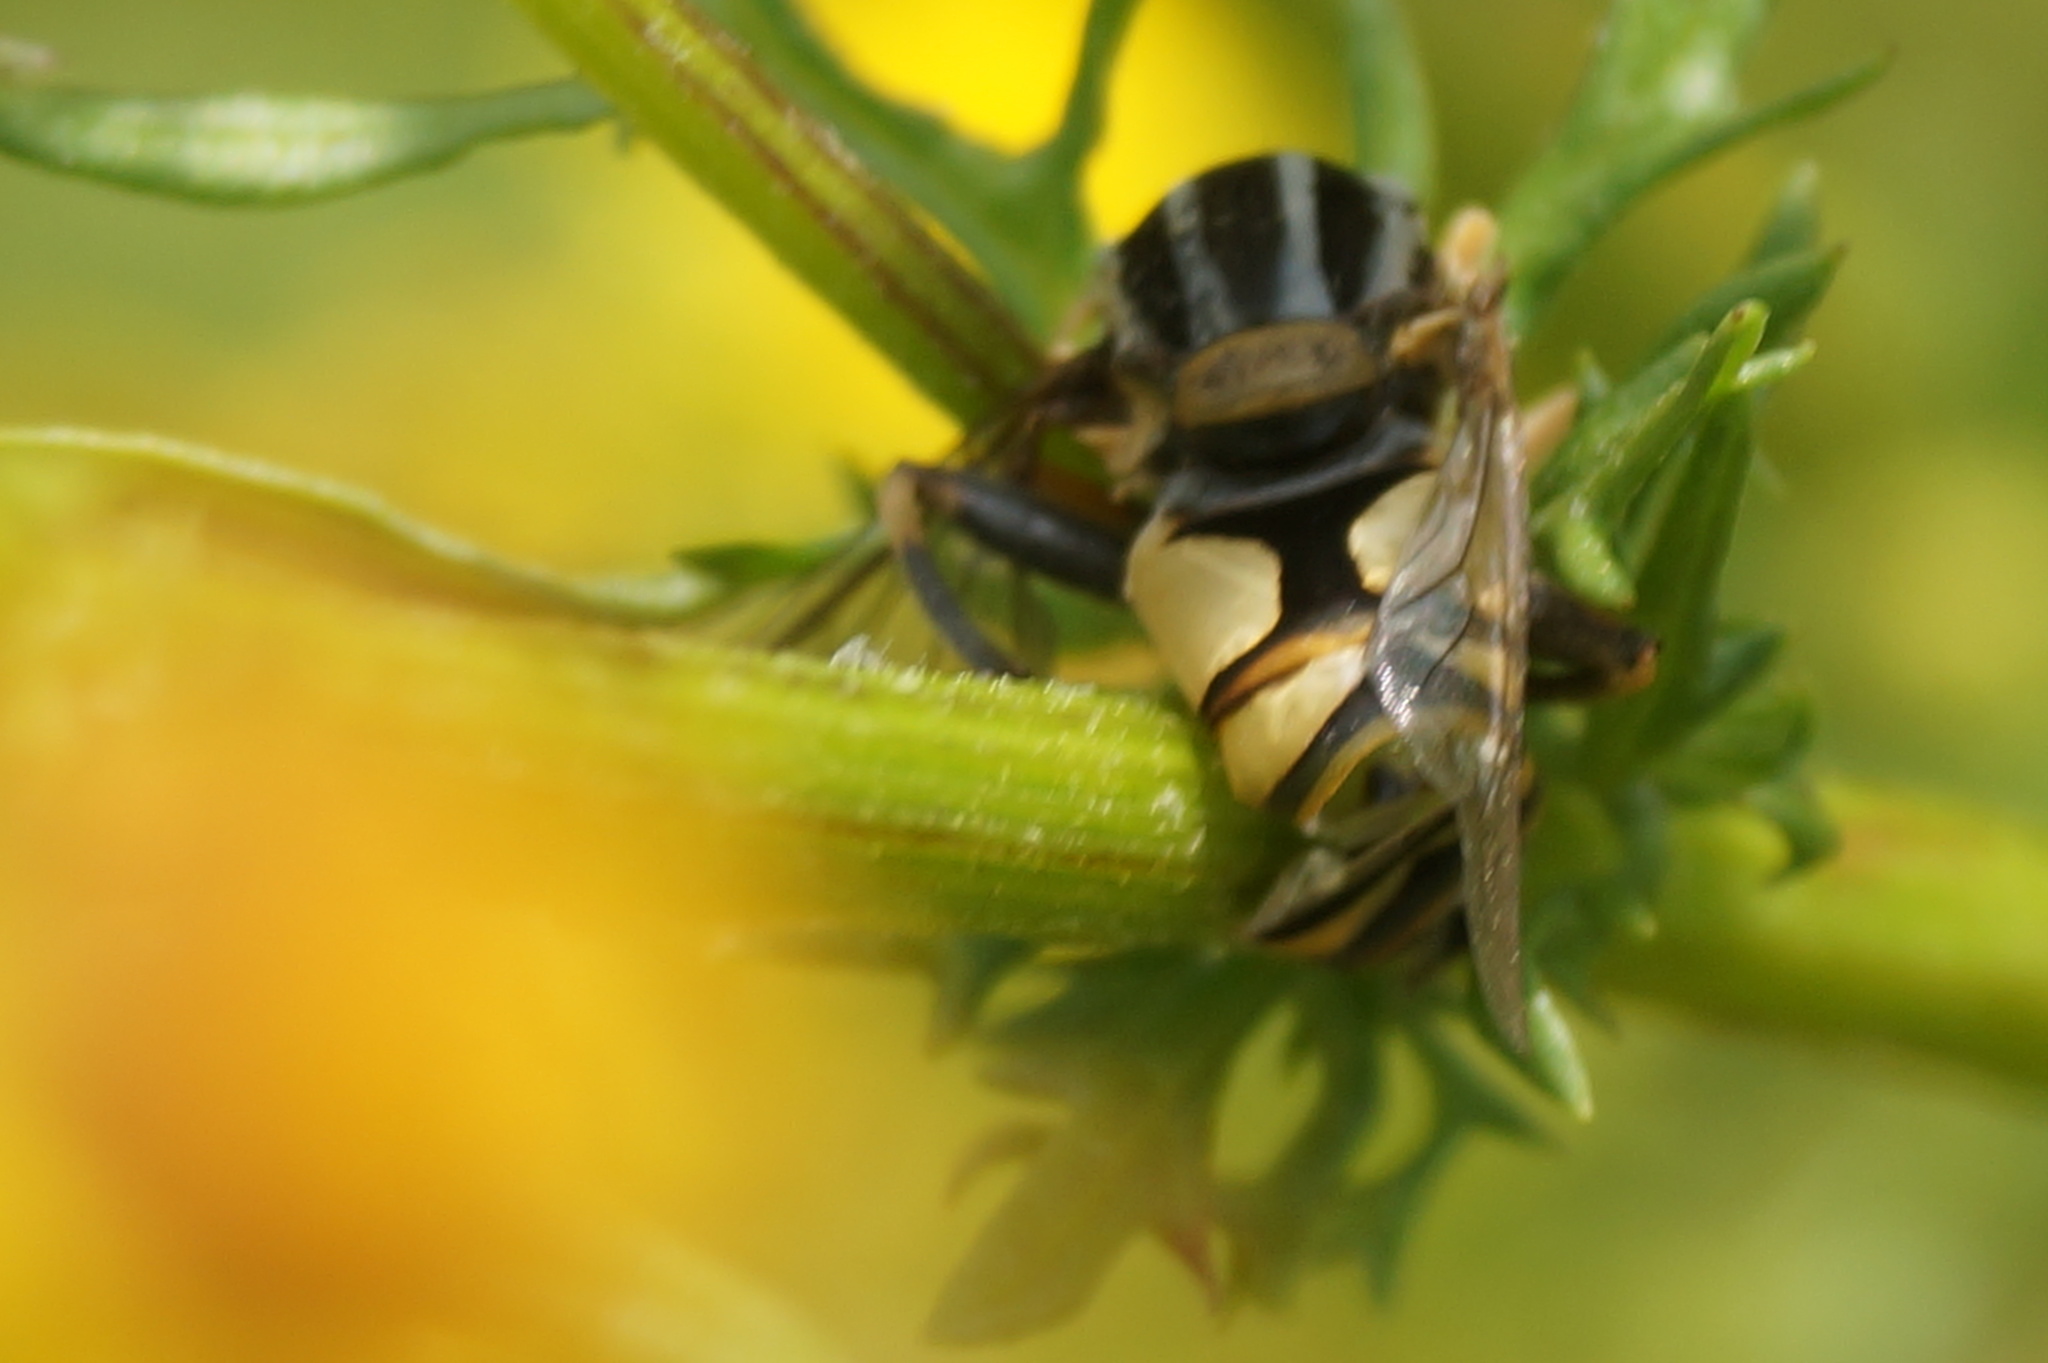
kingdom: Animalia
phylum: Arthropoda
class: Insecta
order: Diptera
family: Syrphidae
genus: Helophilus
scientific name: Helophilus
